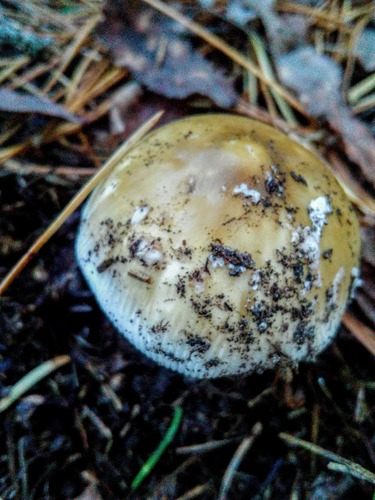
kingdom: Fungi
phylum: Basidiomycota
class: Agaricomycetes
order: Agaricales
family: Amanitaceae
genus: Amanita
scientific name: Amanita fulva
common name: Tawny grisette
